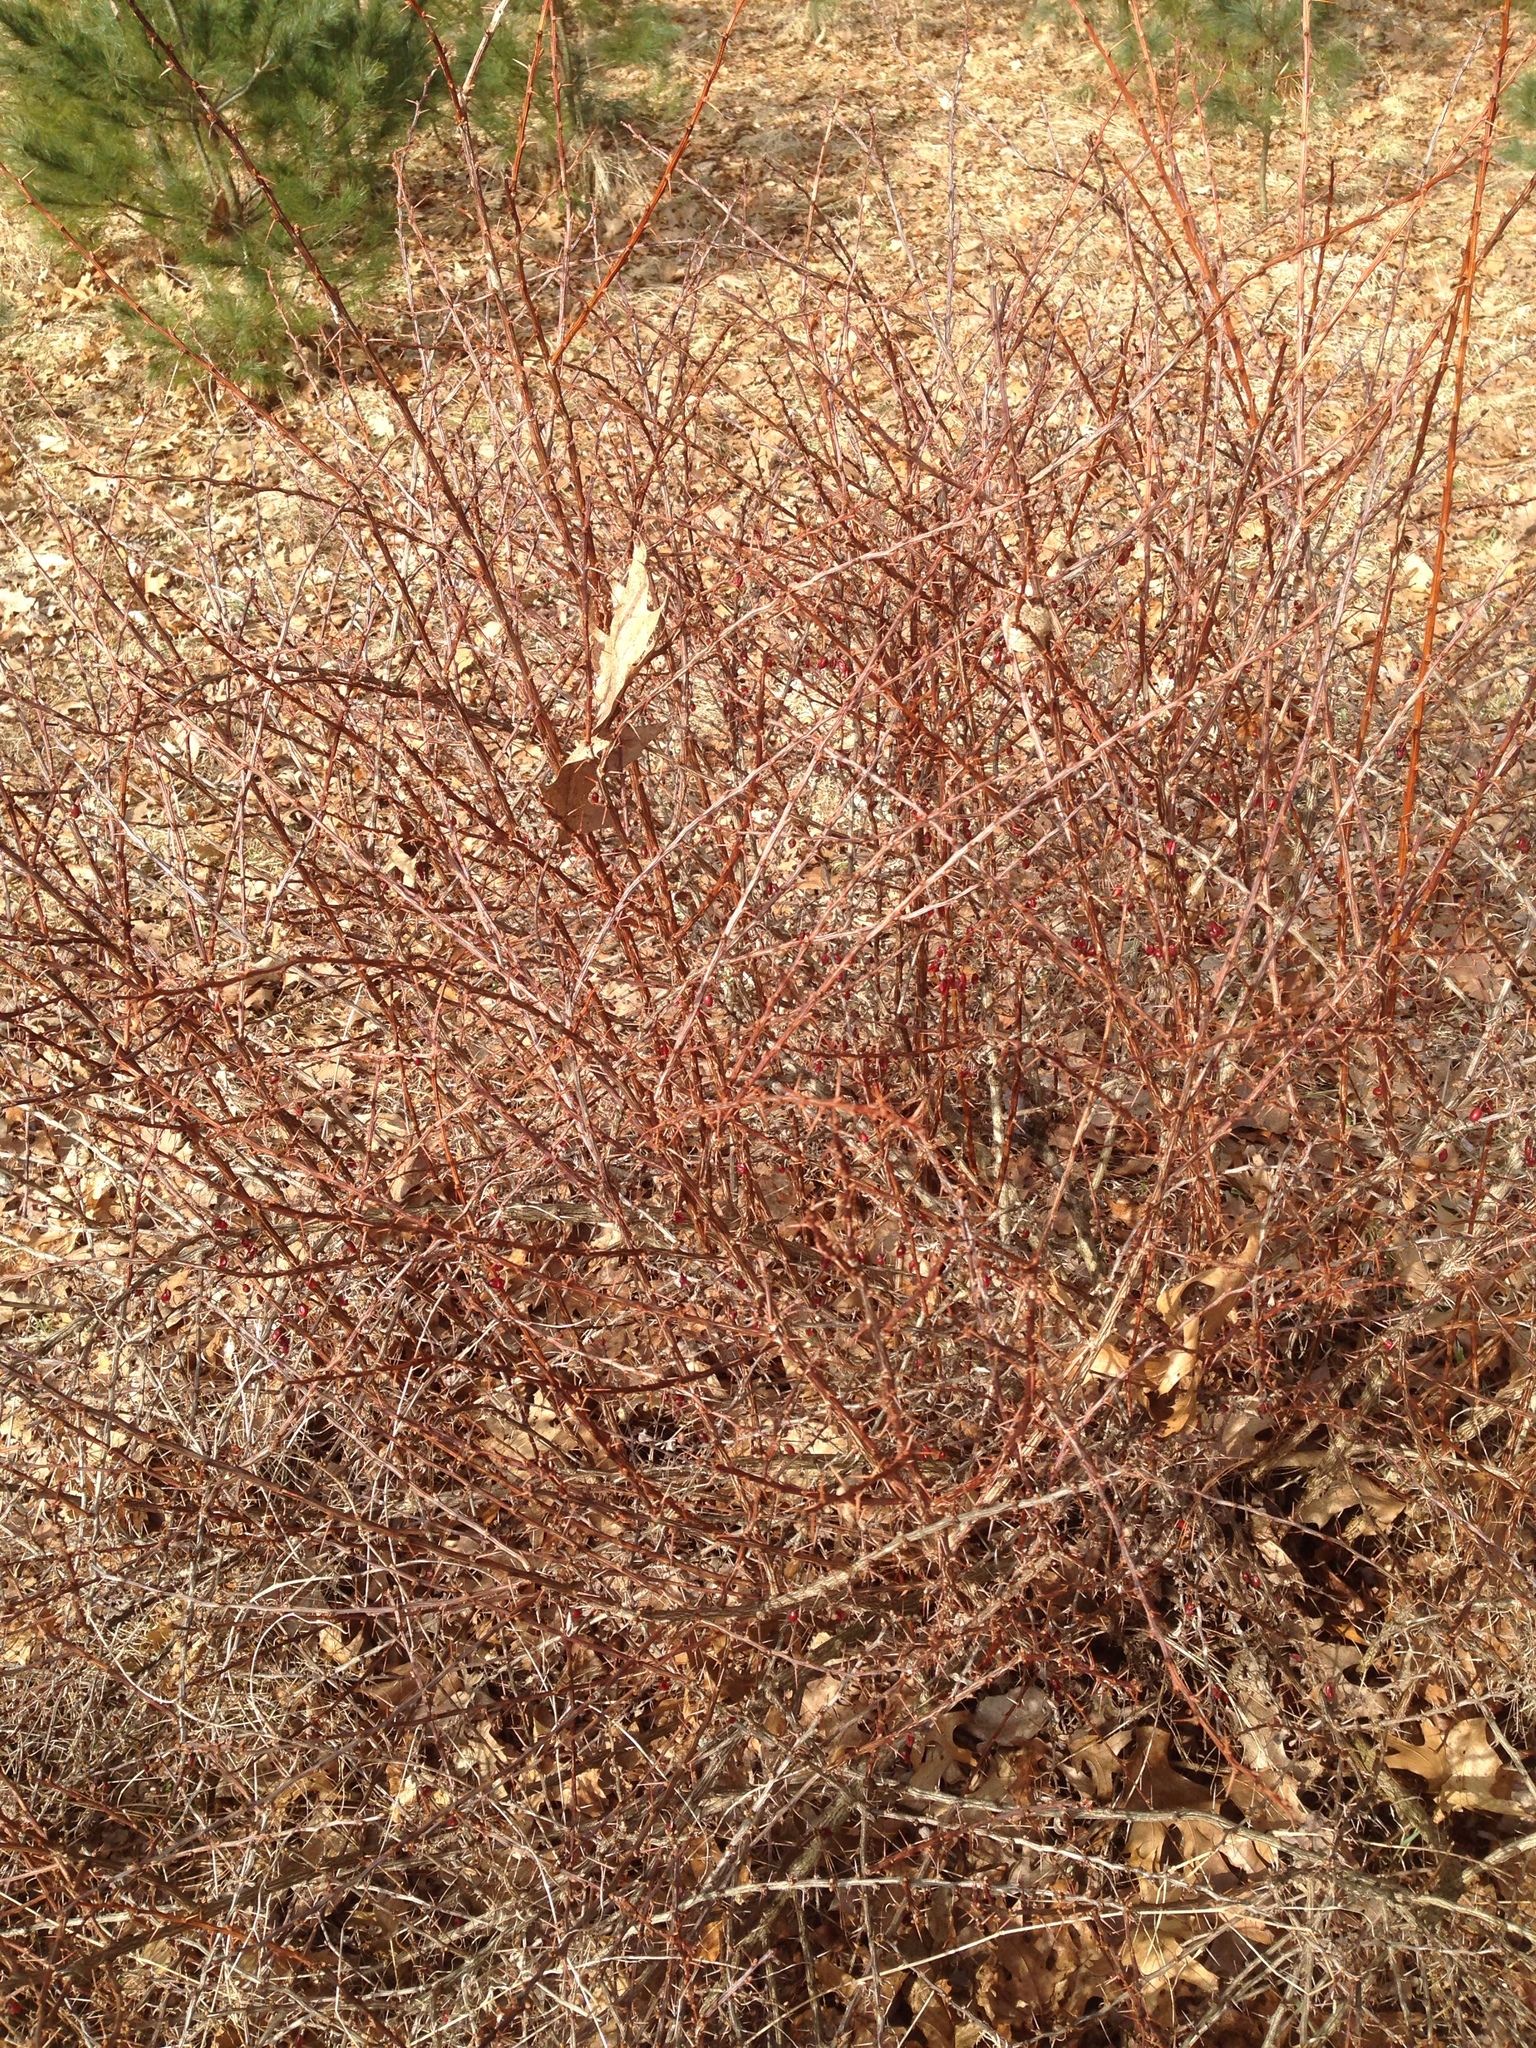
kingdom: Plantae
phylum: Tracheophyta
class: Magnoliopsida
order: Ranunculales
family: Berberidaceae
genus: Berberis
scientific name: Berberis thunbergii
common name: Japanese barberry
